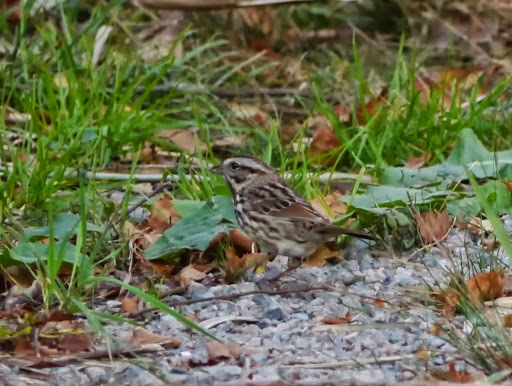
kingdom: Animalia
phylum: Chordata
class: Aves
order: Passeriformes
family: Passerellidae
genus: Melospiza
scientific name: Melospiza melodia
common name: Song sparrow
